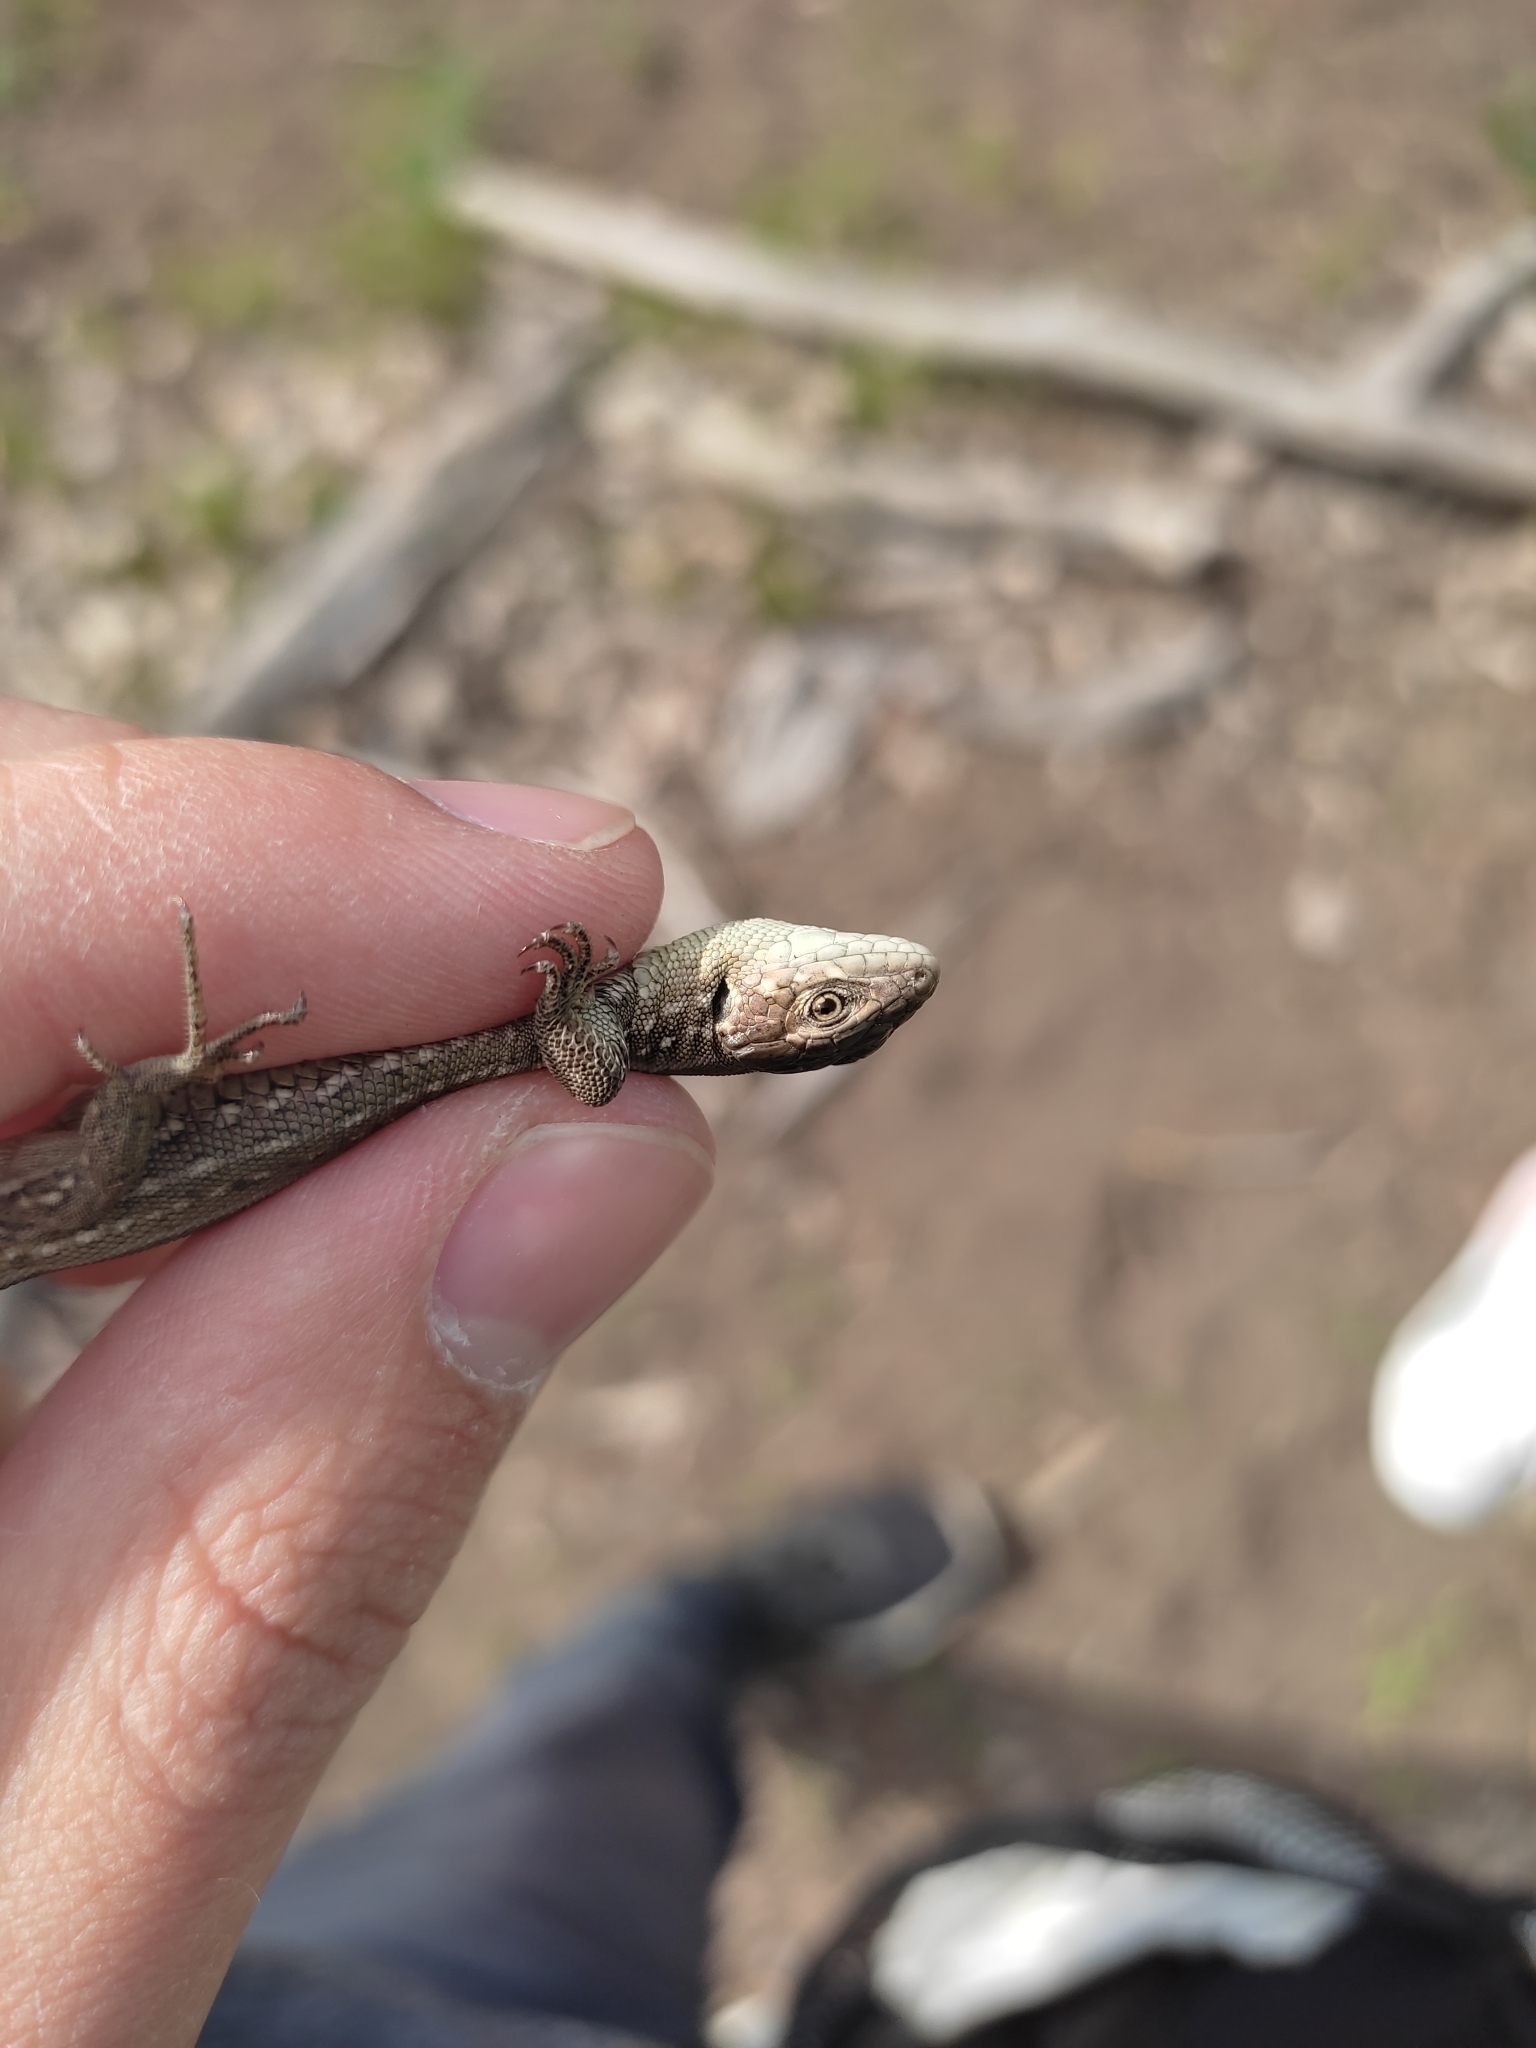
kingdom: Animalia
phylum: Chordata
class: Squamata
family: Lacertidae
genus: Lacerta
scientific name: Lacerta agilis
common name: Sand lizard
